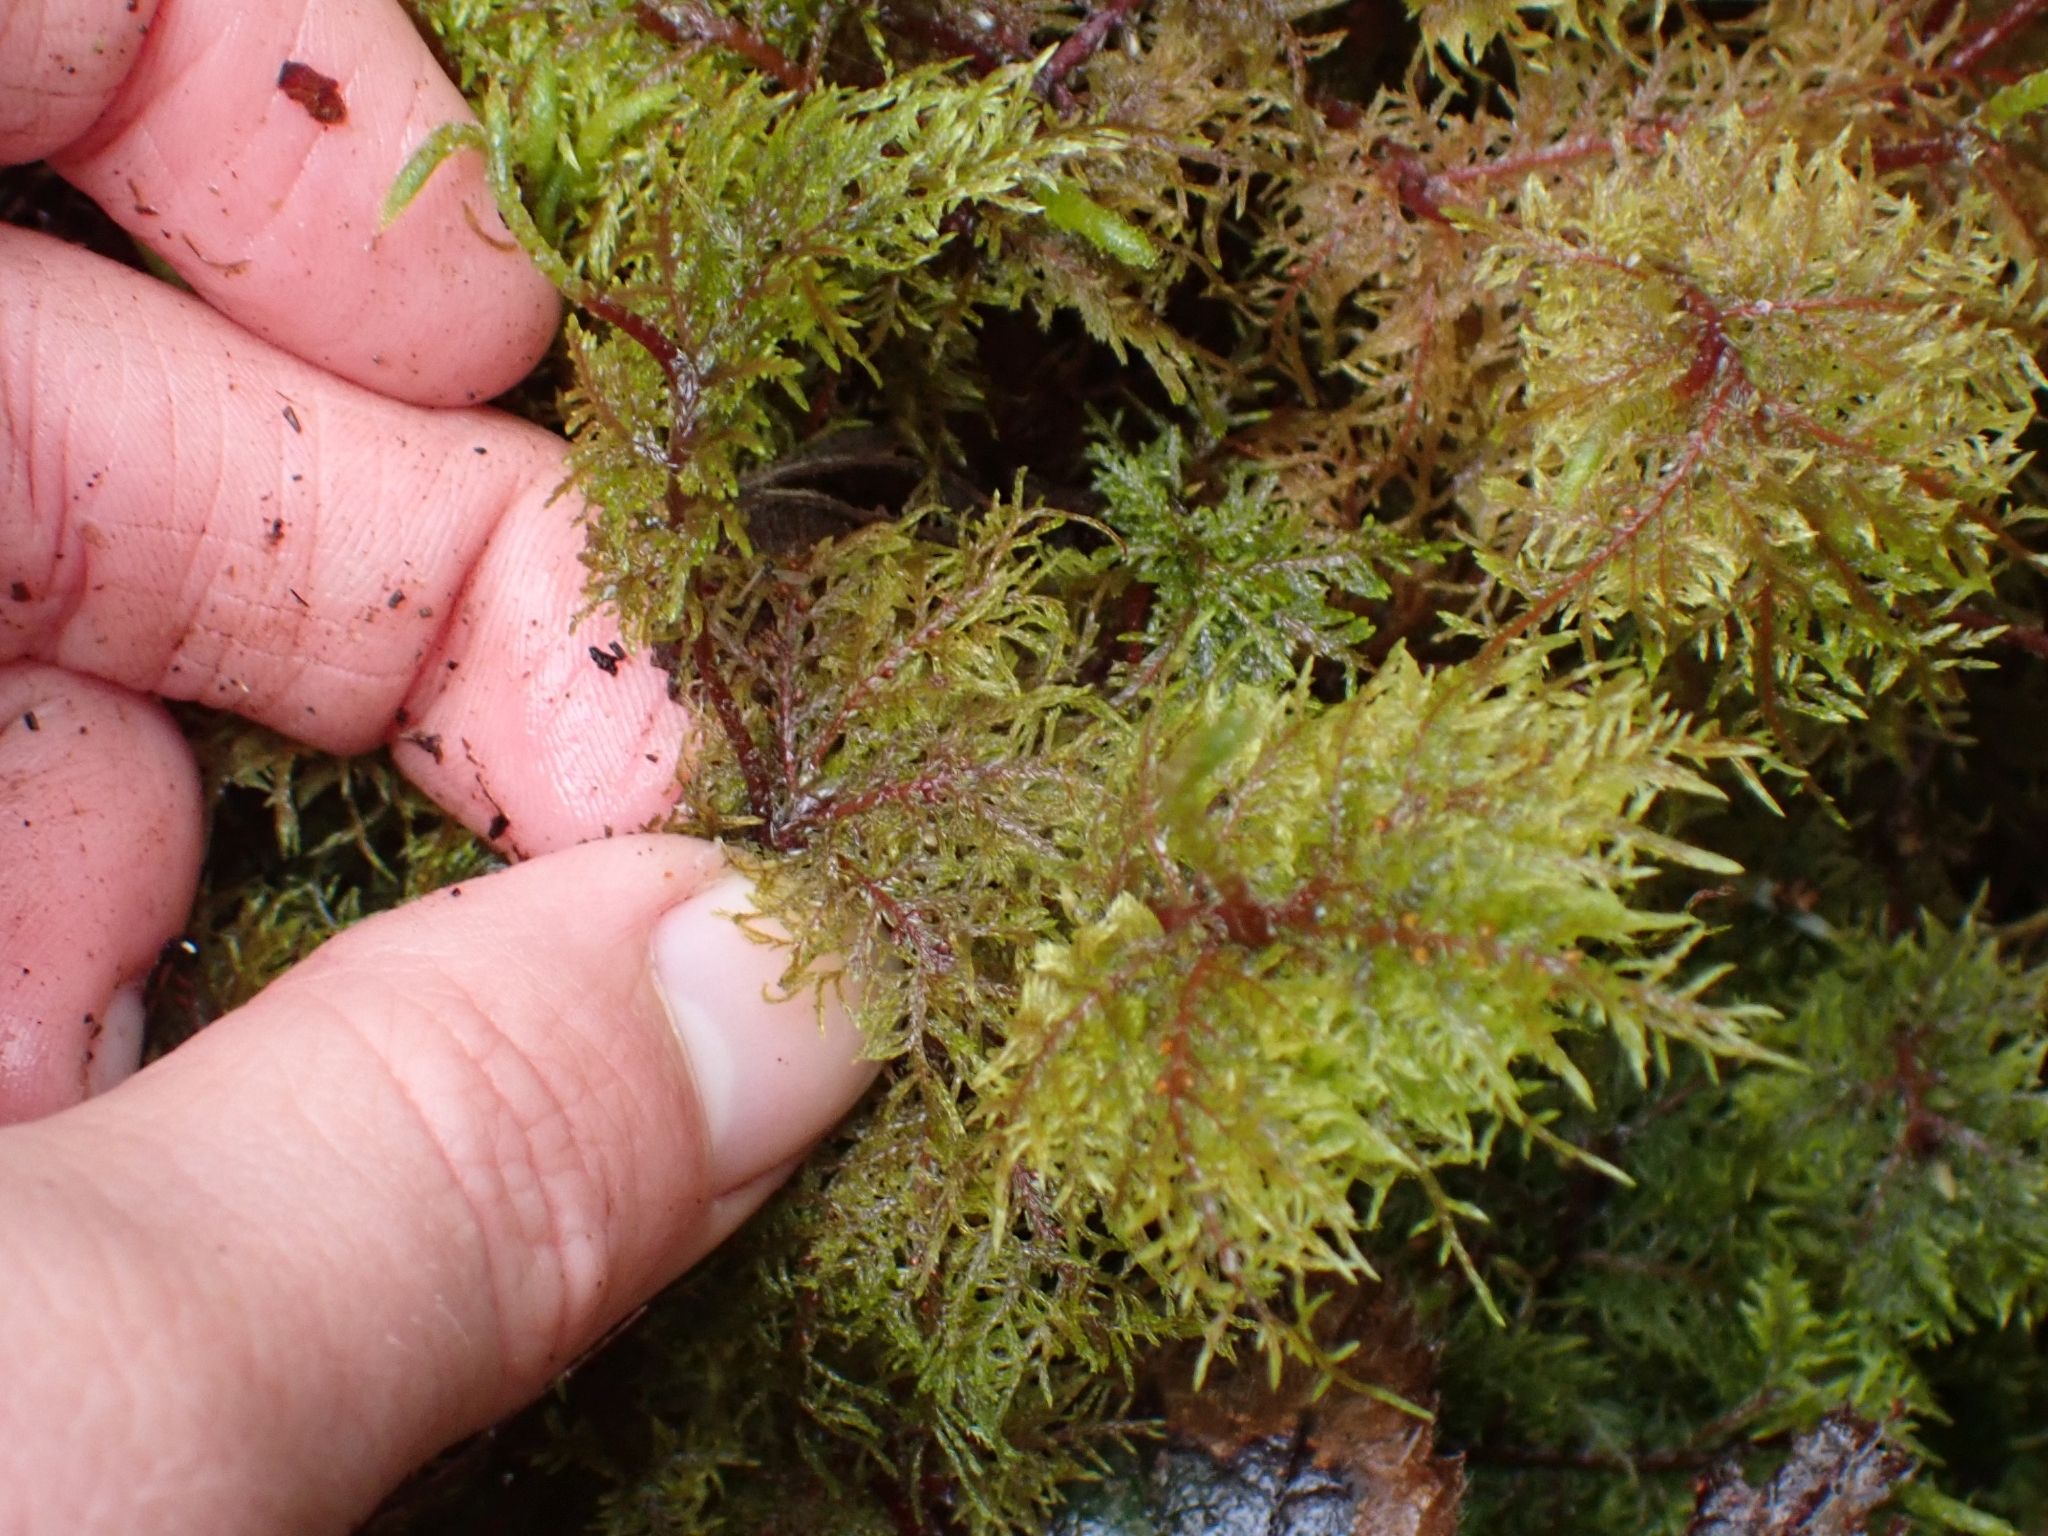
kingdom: Plantae
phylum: Bryophyta
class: Bryopsida
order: Hypnales
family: Hylocomiaceae
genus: Hylocomium
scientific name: Hylocomium splendens
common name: Stairstep moss
